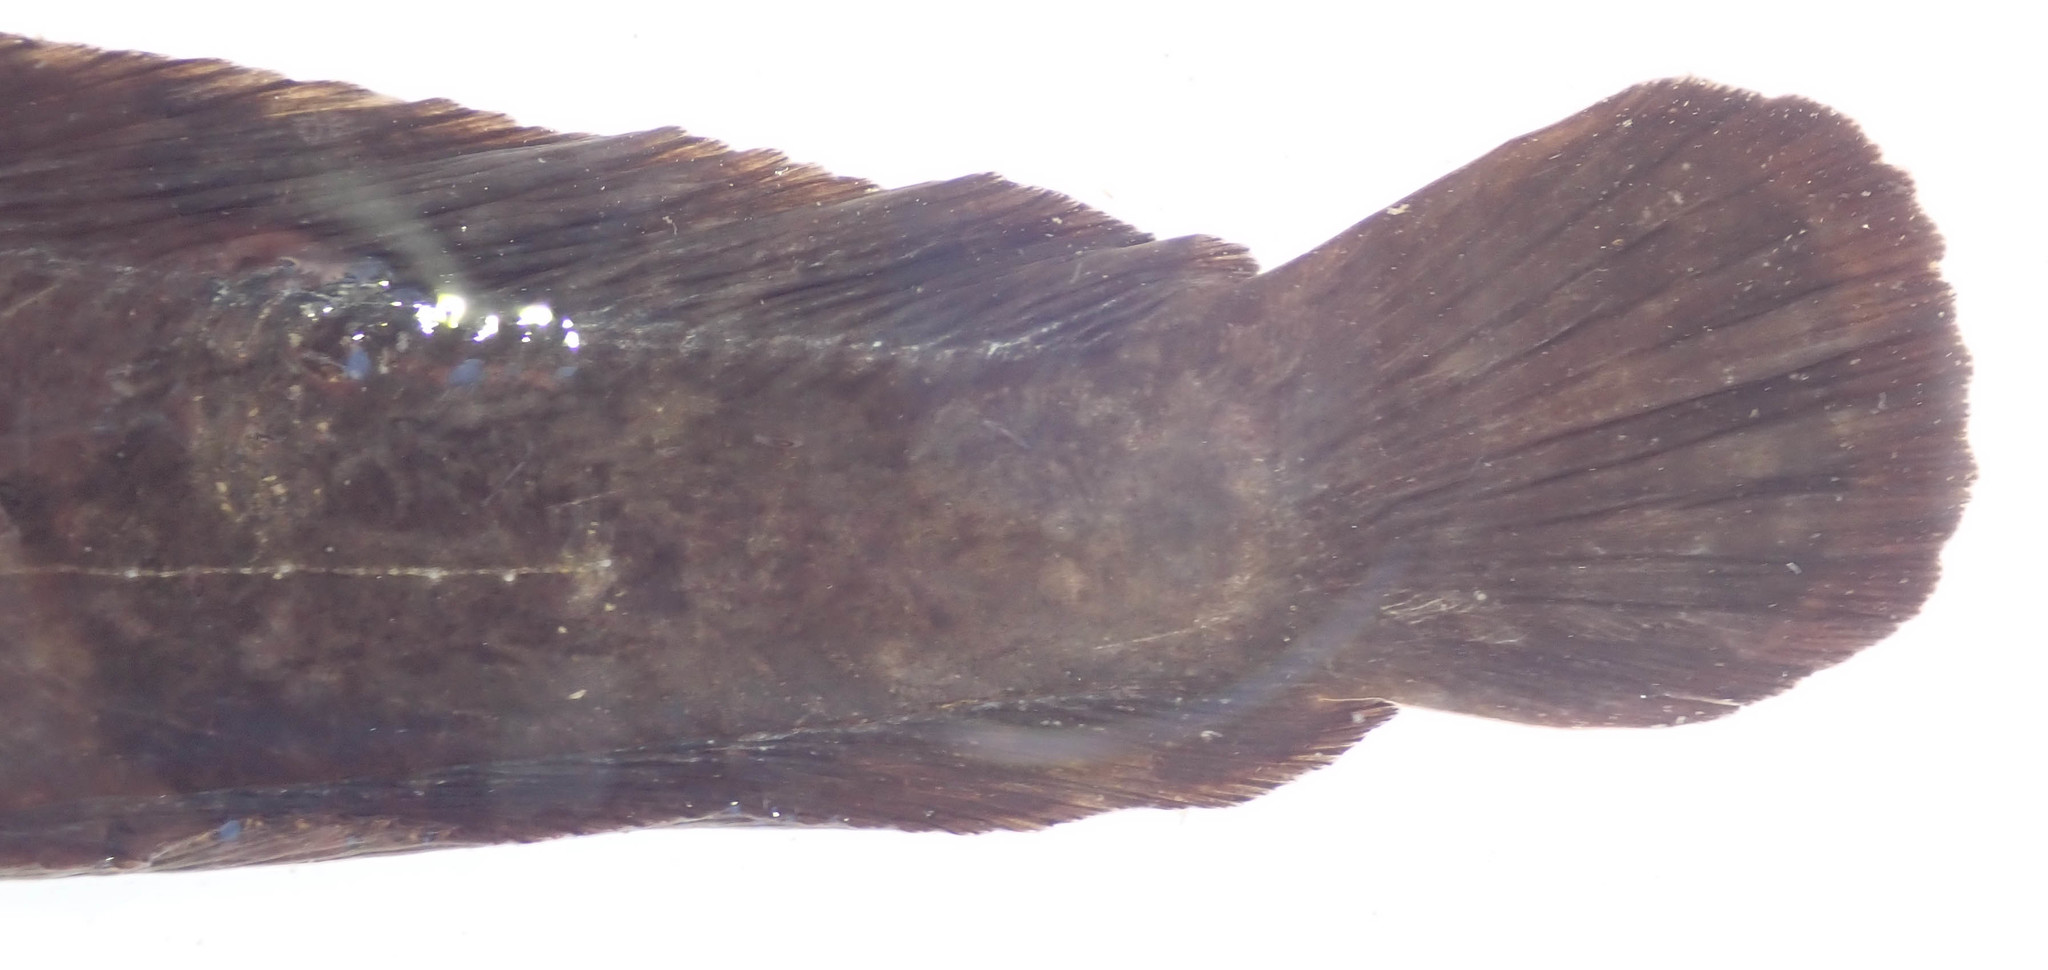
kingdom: Animalia
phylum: Chordata
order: Siluriformes
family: Clariidae
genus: Clarias
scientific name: Clarias gariepinus
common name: African catfish
